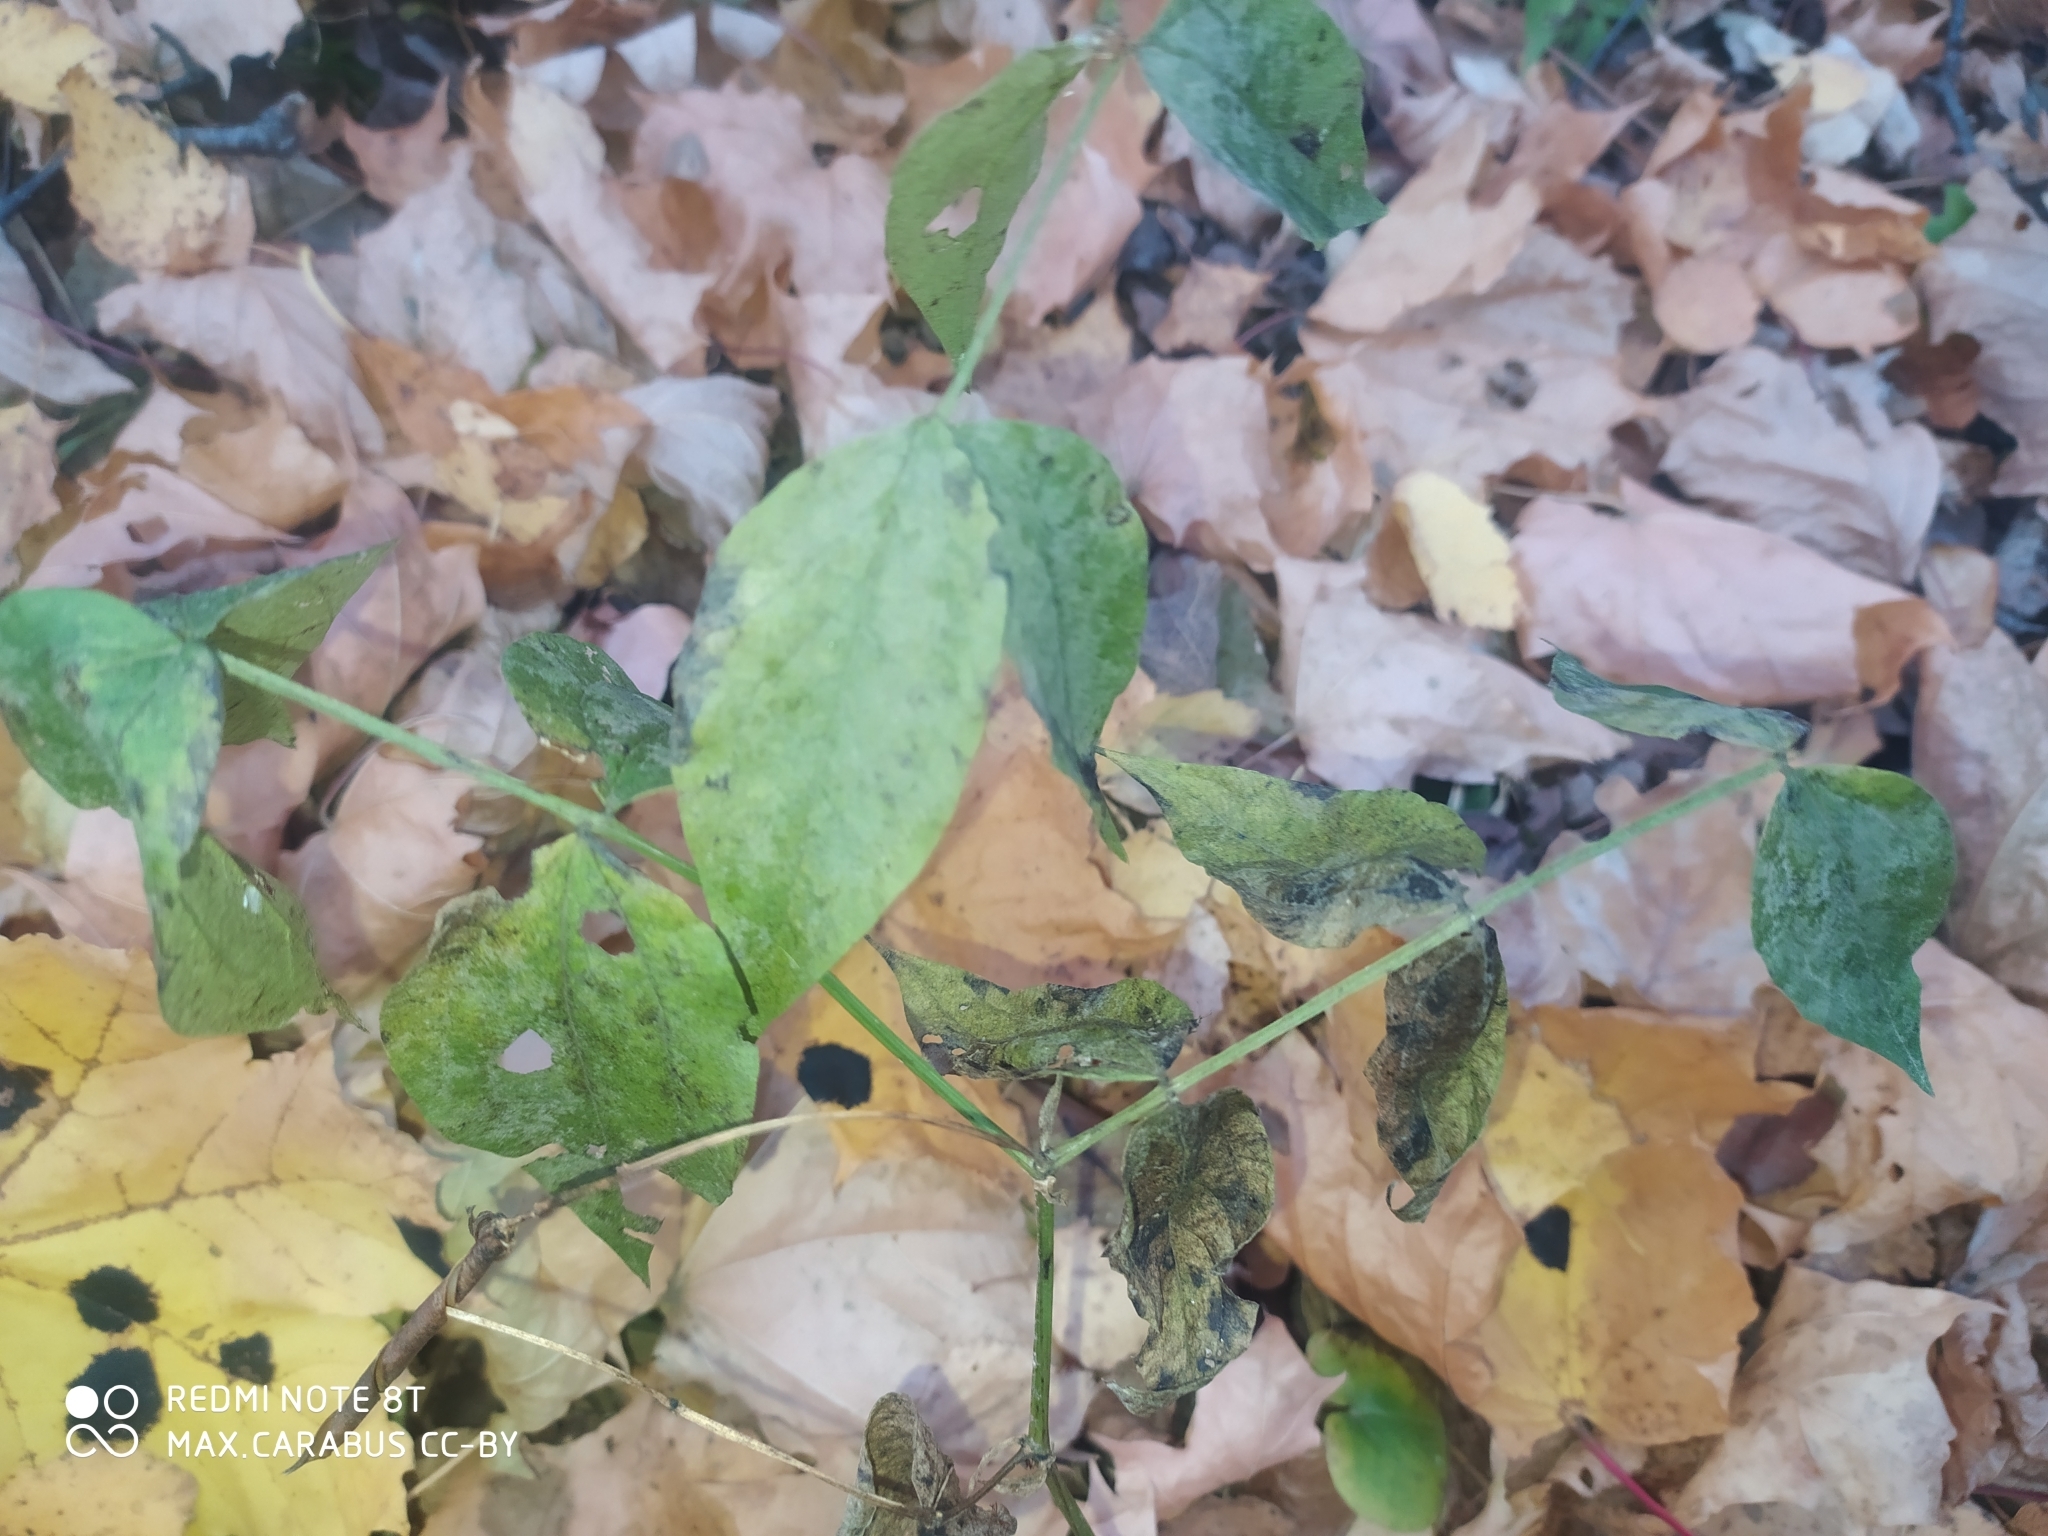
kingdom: Plantae
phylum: Tracheophyta
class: Magnoliopsida
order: Fabales
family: Fabaceae
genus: Lathyrus
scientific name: Lathyrus vernus
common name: Spring pea
